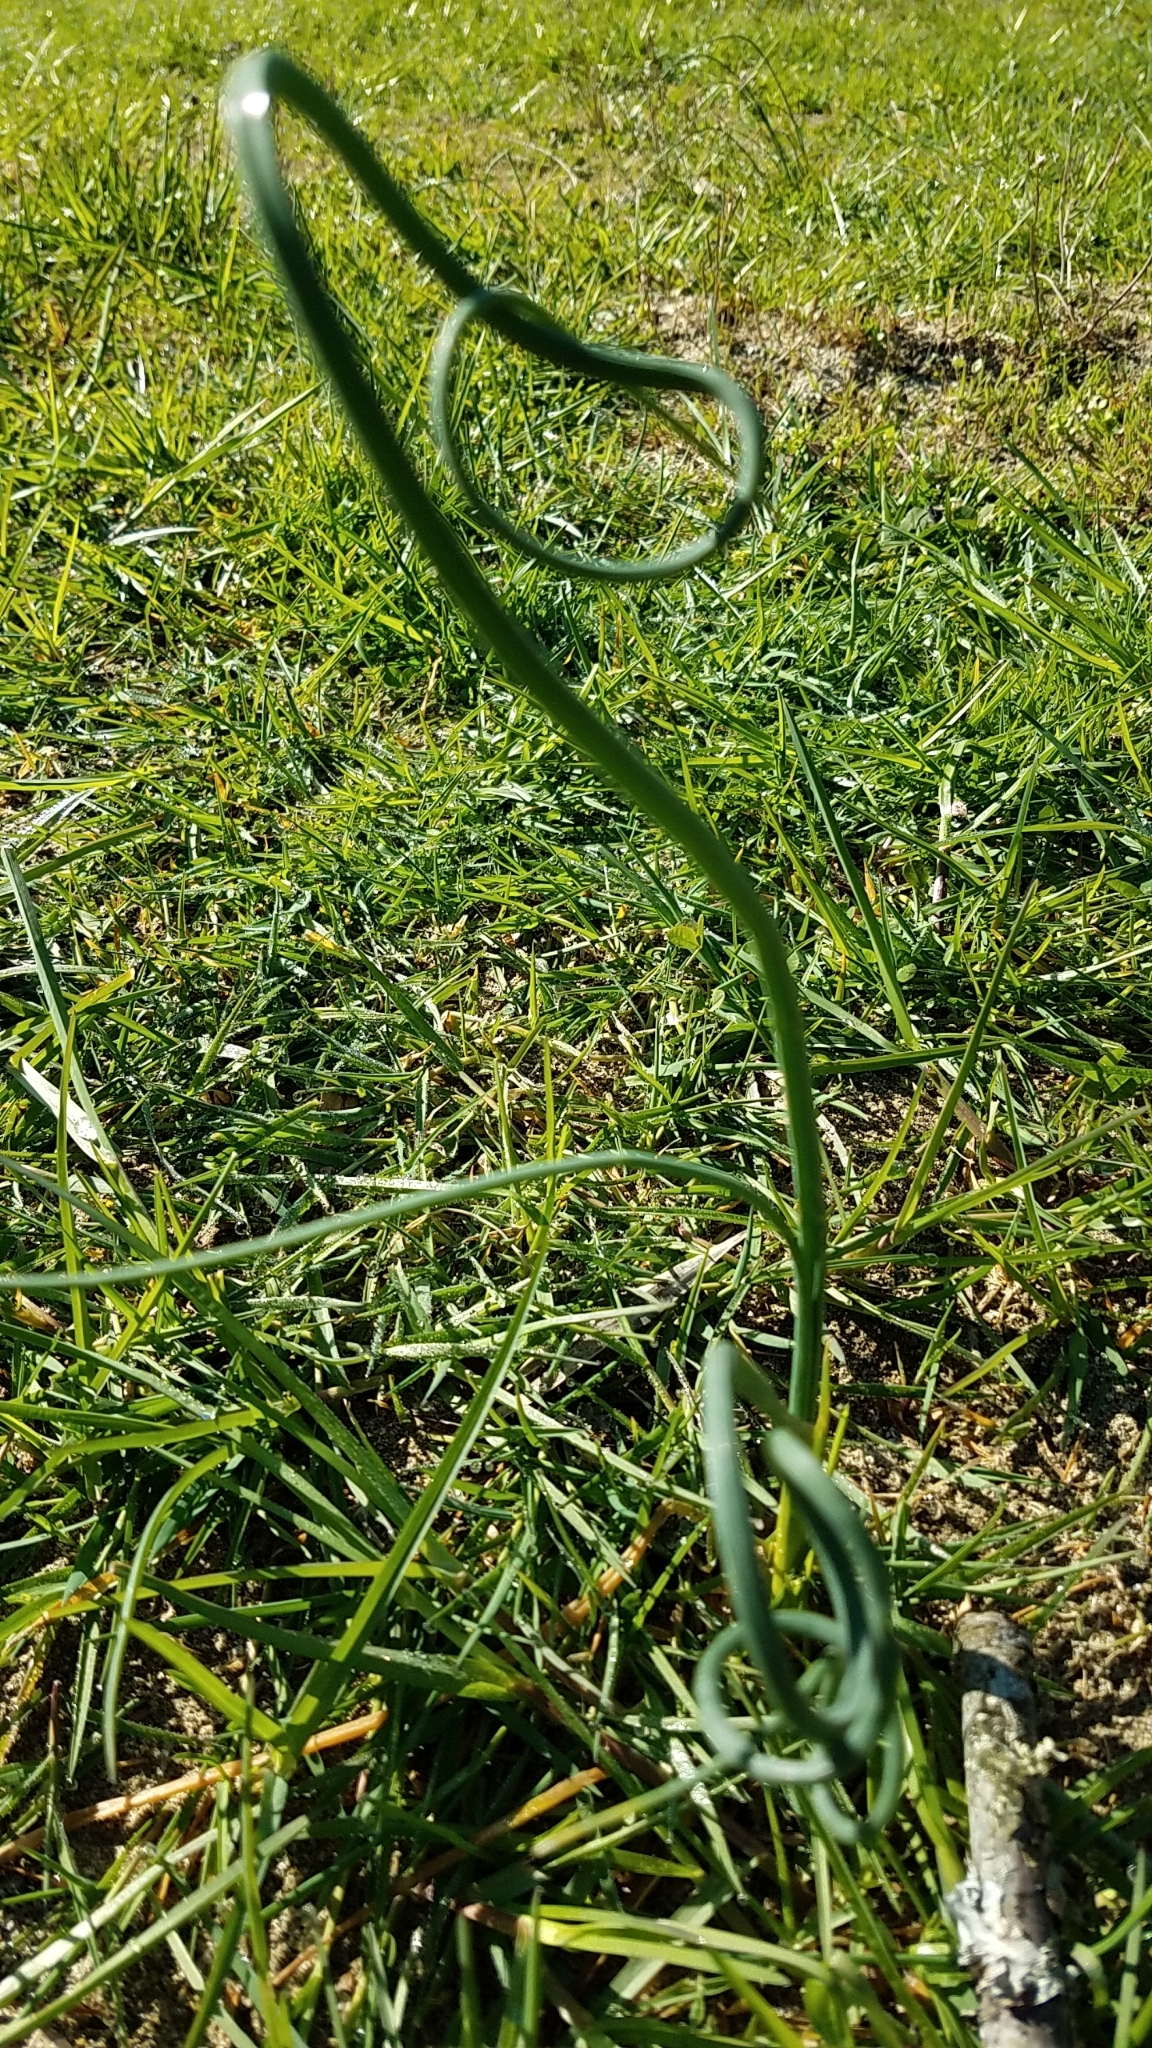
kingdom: Plantae
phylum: Tracheophyta
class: Liliopsida
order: Asparagales
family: Amaryllidaceae
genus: Allium
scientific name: Allium vineale
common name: Crow garlic
